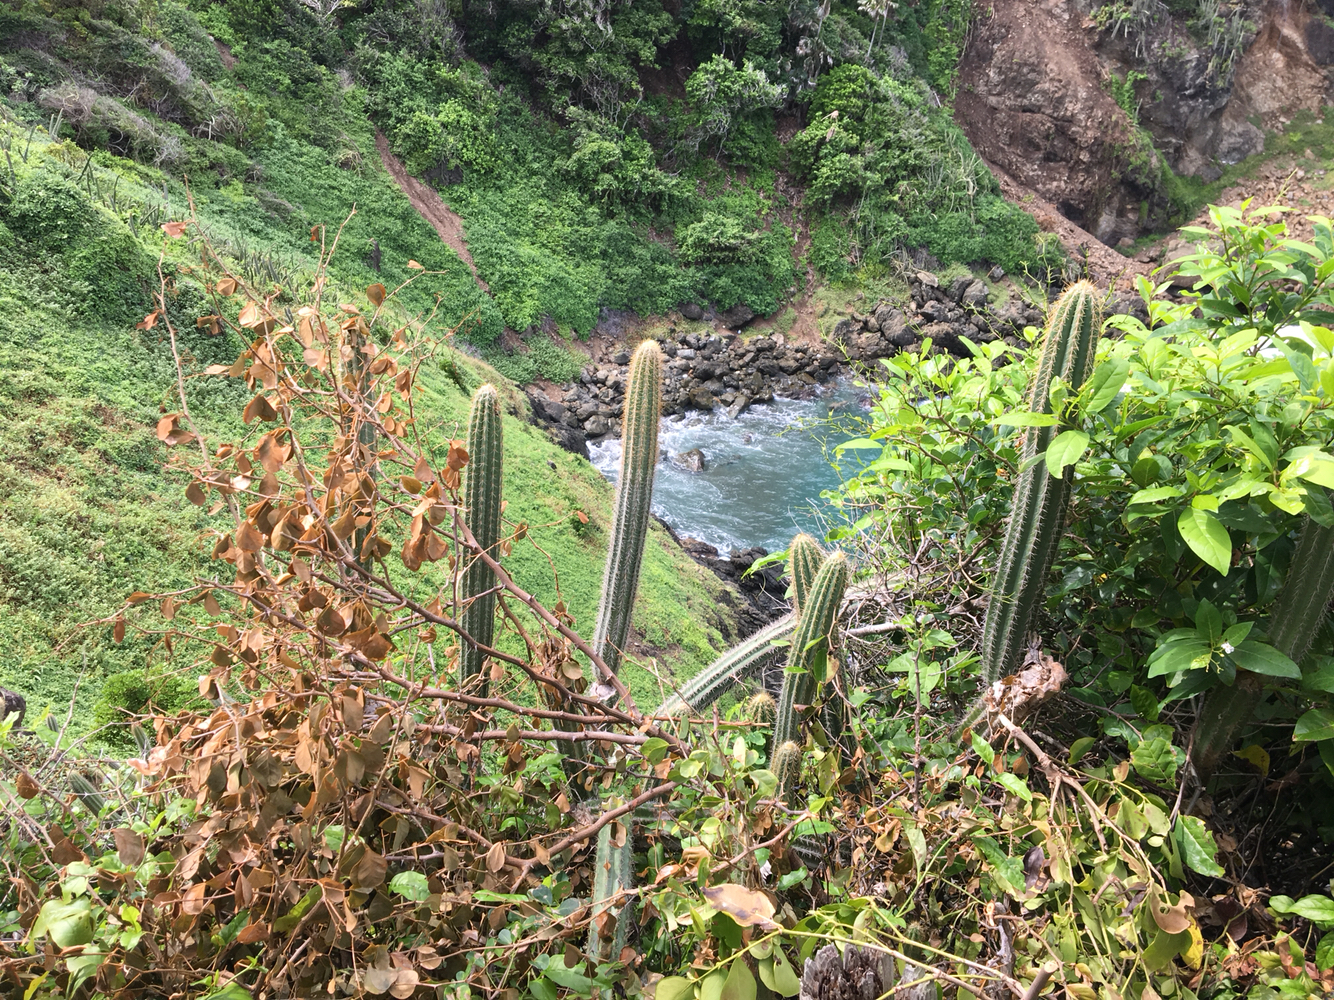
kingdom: Plantae
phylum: Tracheophyta
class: Magnoliopsida
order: Caryophyllales
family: Cactaceae
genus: Pilosocereus
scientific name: Pilosocereus lanuginosus
